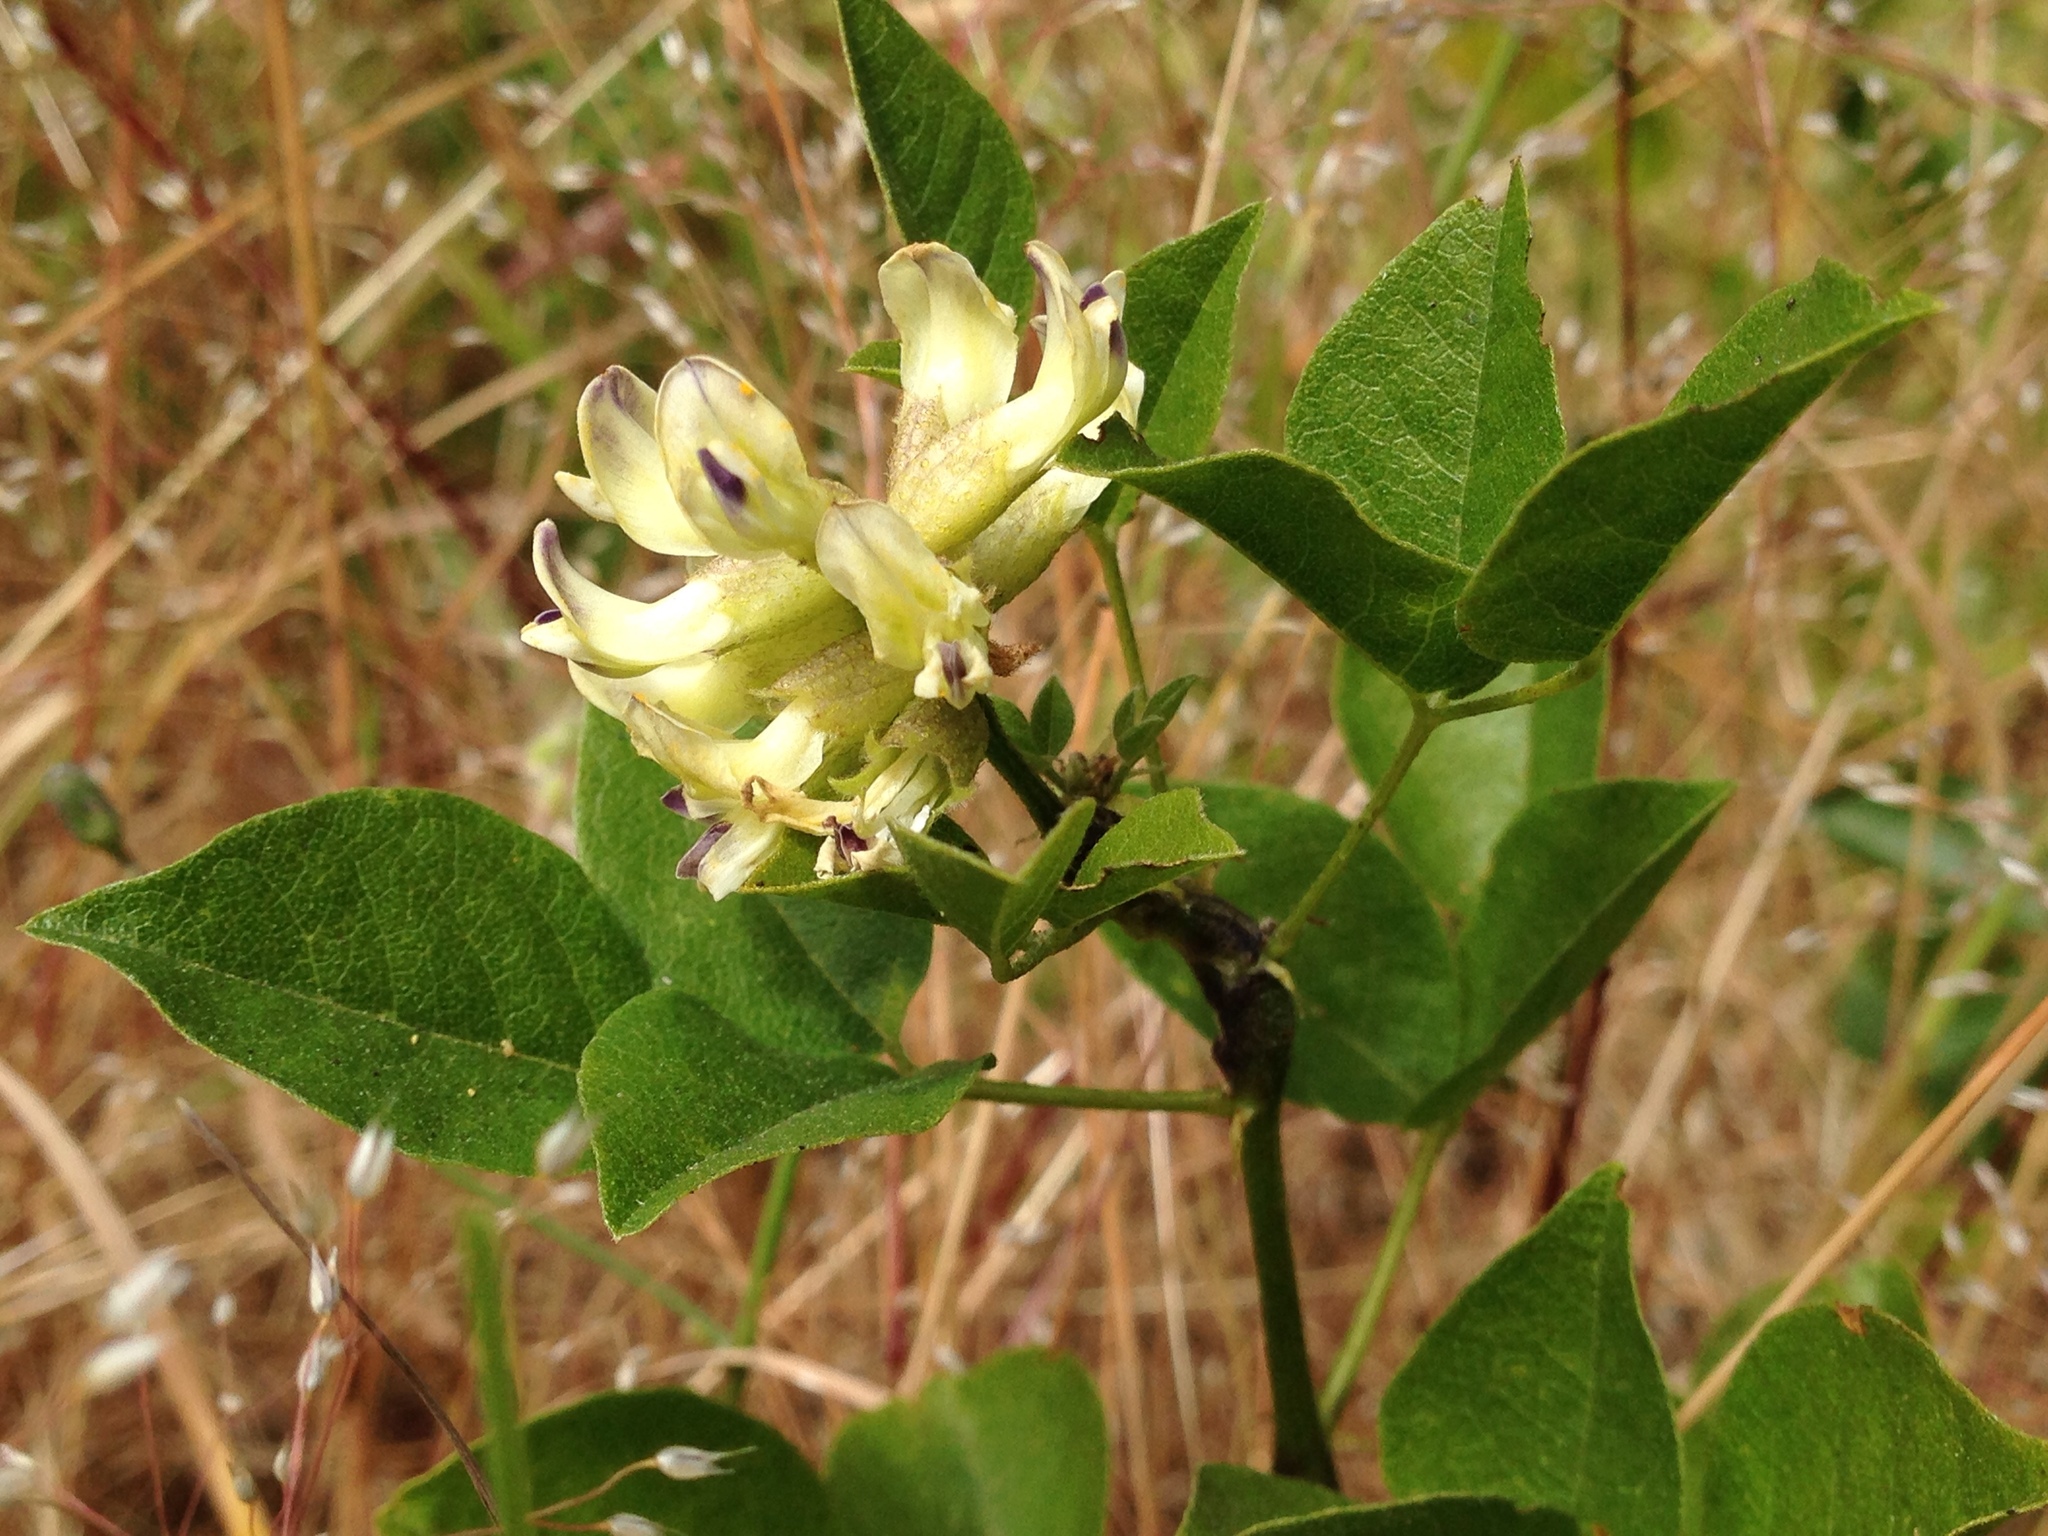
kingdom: Plantae
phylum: Tracheophyta
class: Magnoliopsida
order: Fabales
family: Fabaceae
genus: Rupertia
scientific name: Rupertia physodes
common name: California-tea
